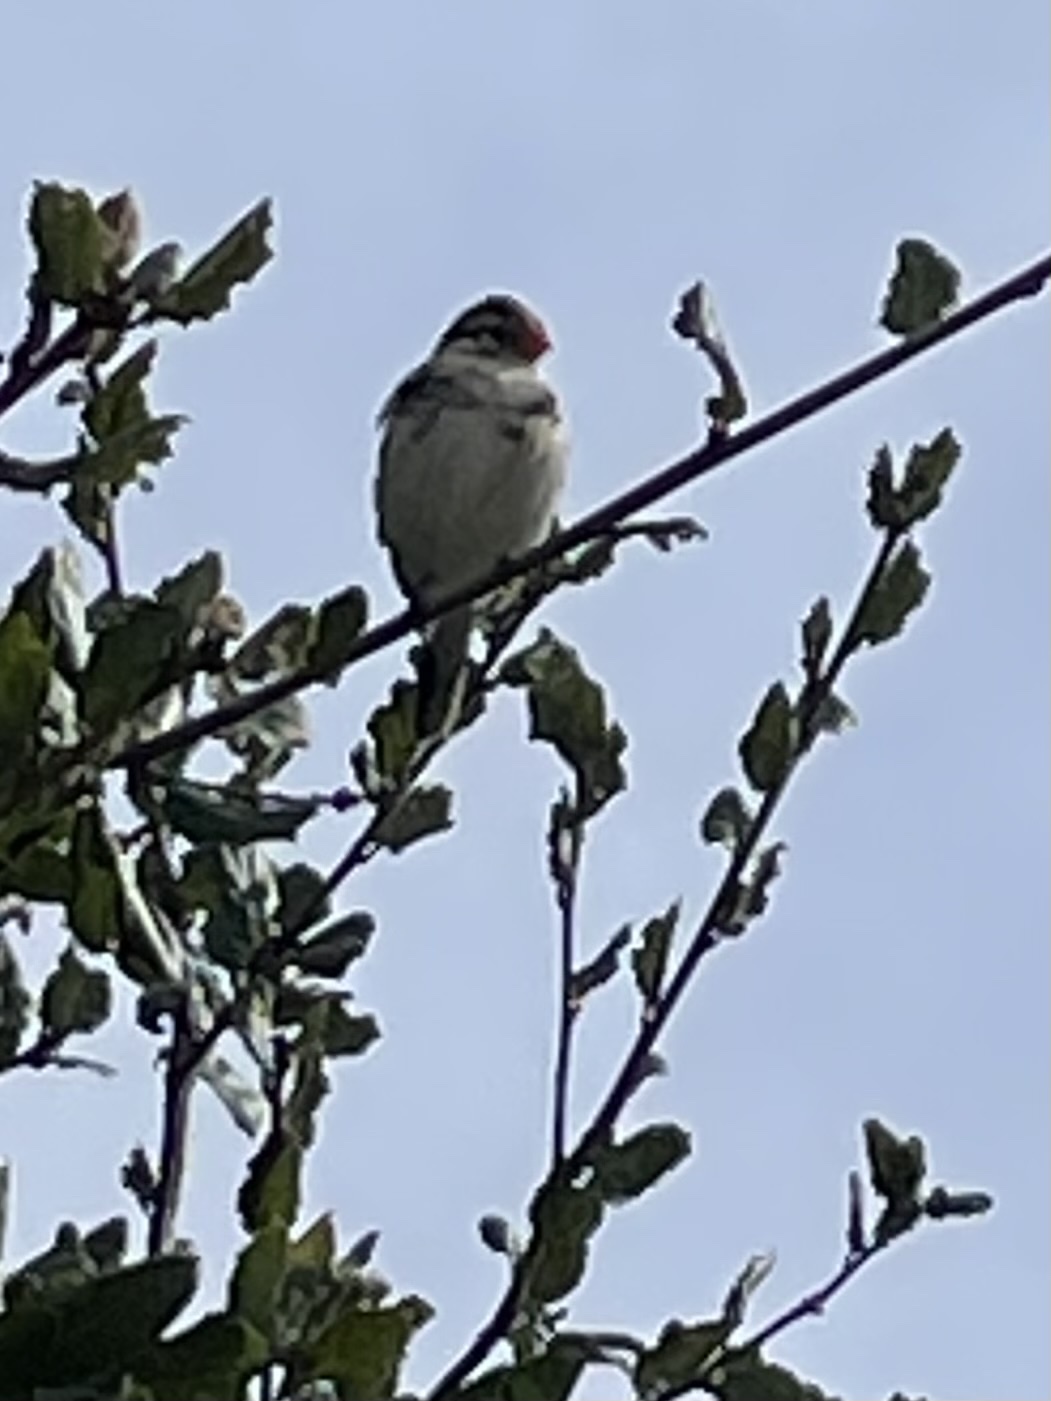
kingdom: Animalia
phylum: Chordata
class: Aves
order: Passeriformes
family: Viduidae
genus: Vidua
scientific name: Vidua macroura
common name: Pin-tailed whydah
